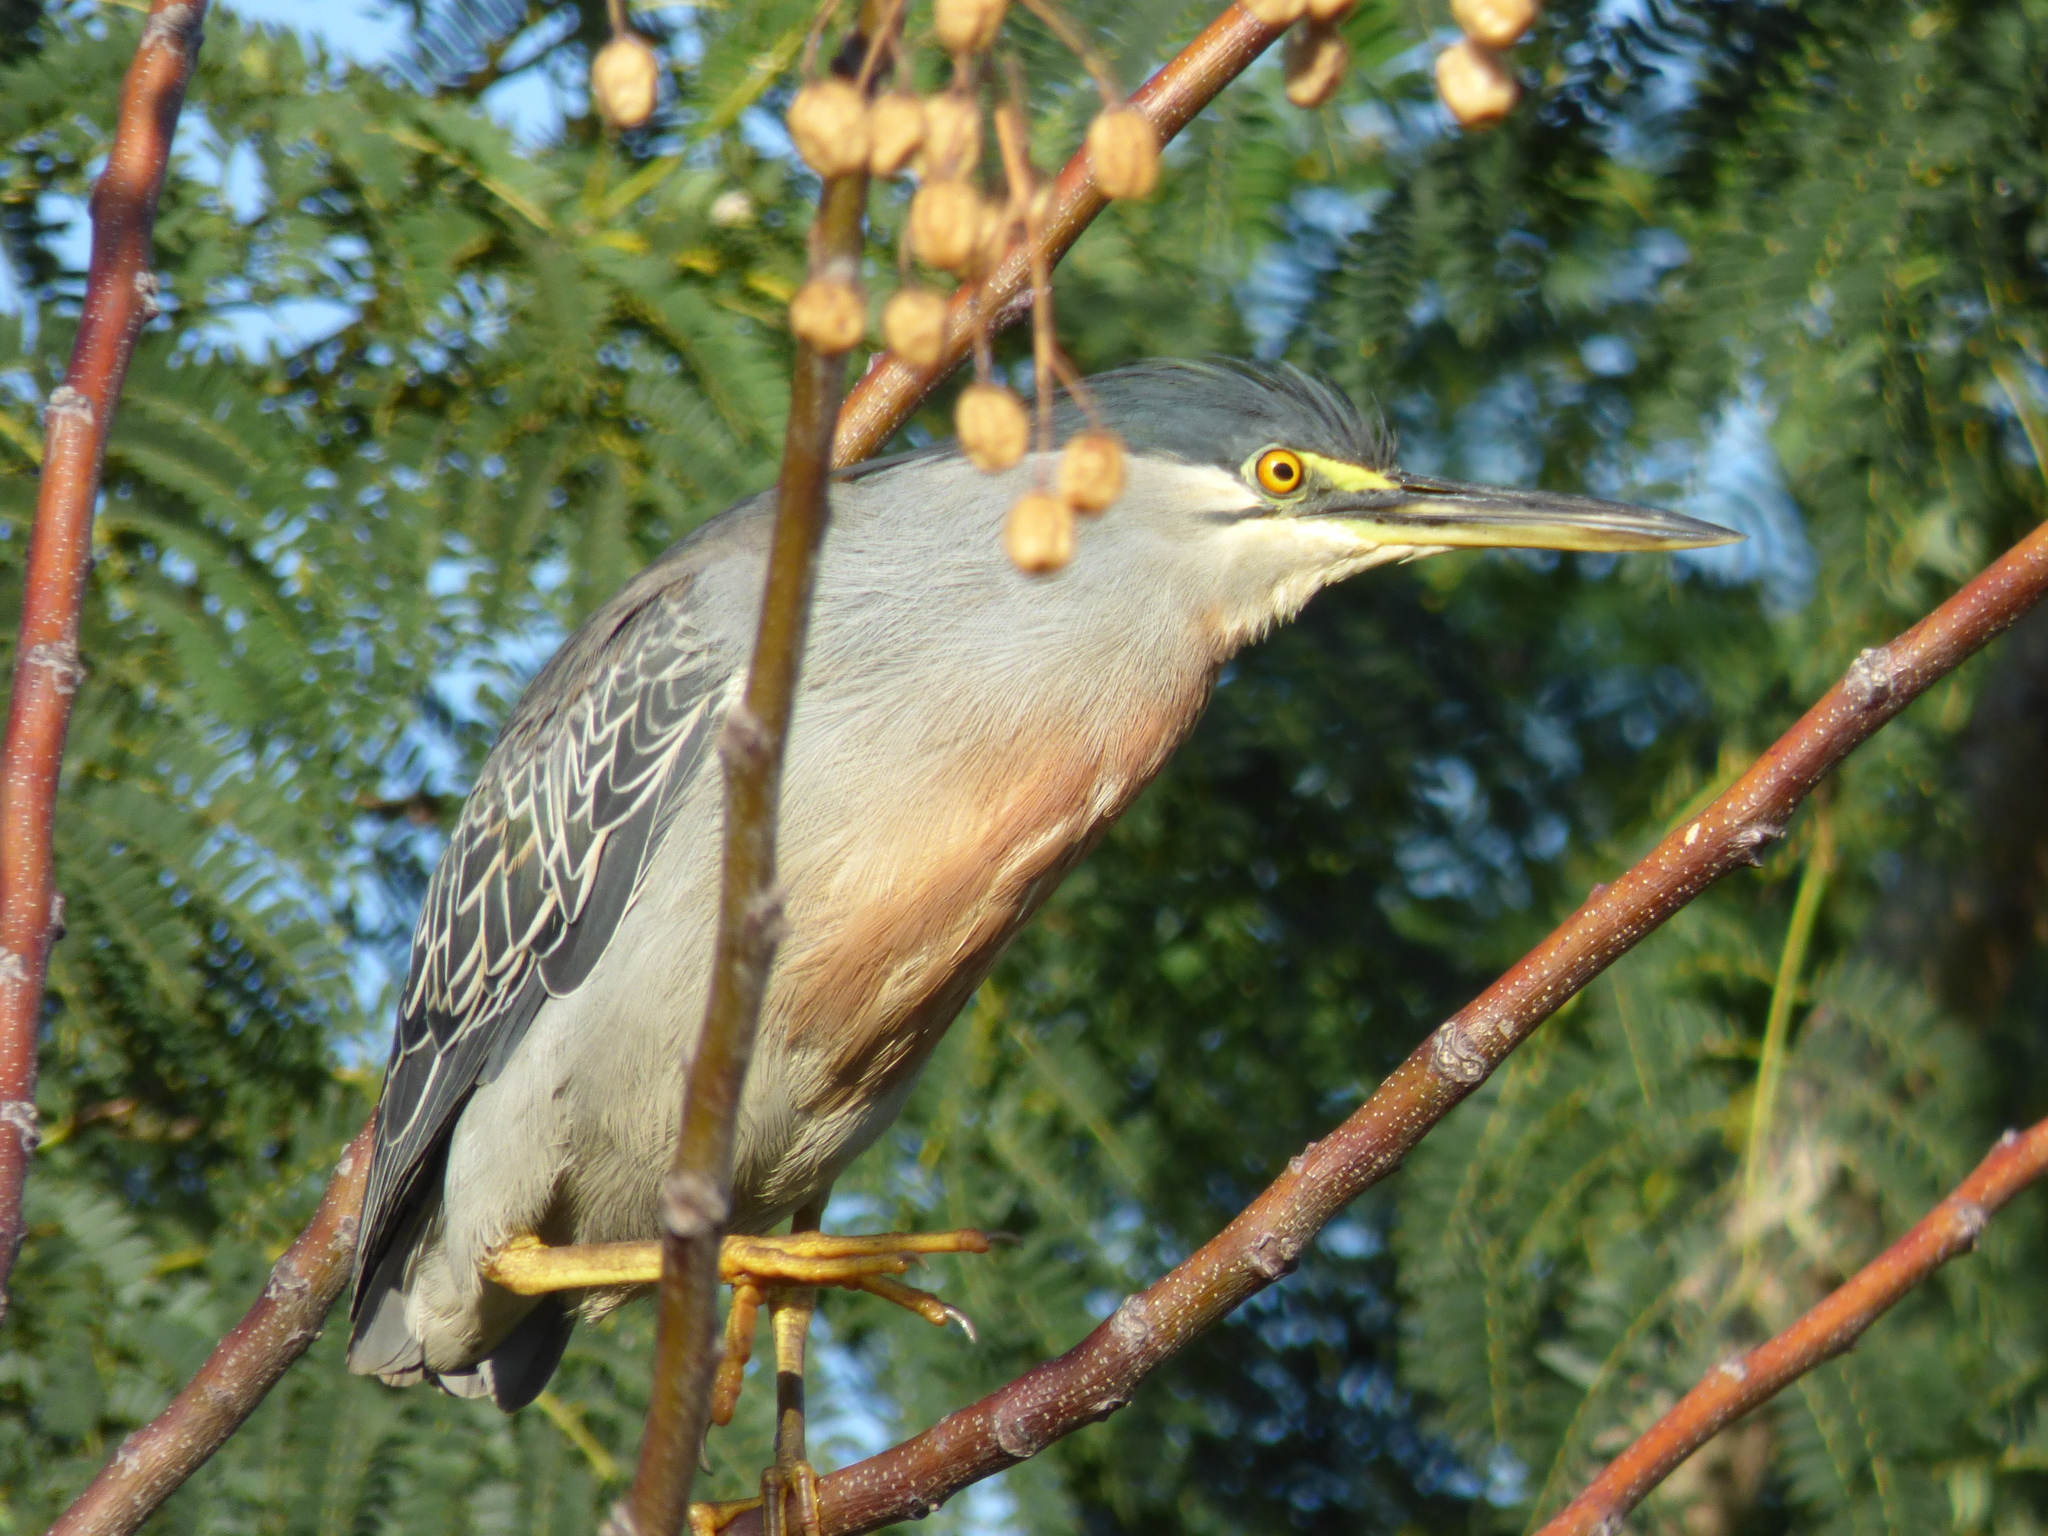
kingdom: Animalia
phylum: Chordata
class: Aves
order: Pelecaniformes
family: Ardeidae
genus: Butorides
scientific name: Butorides striata
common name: Striated heron
